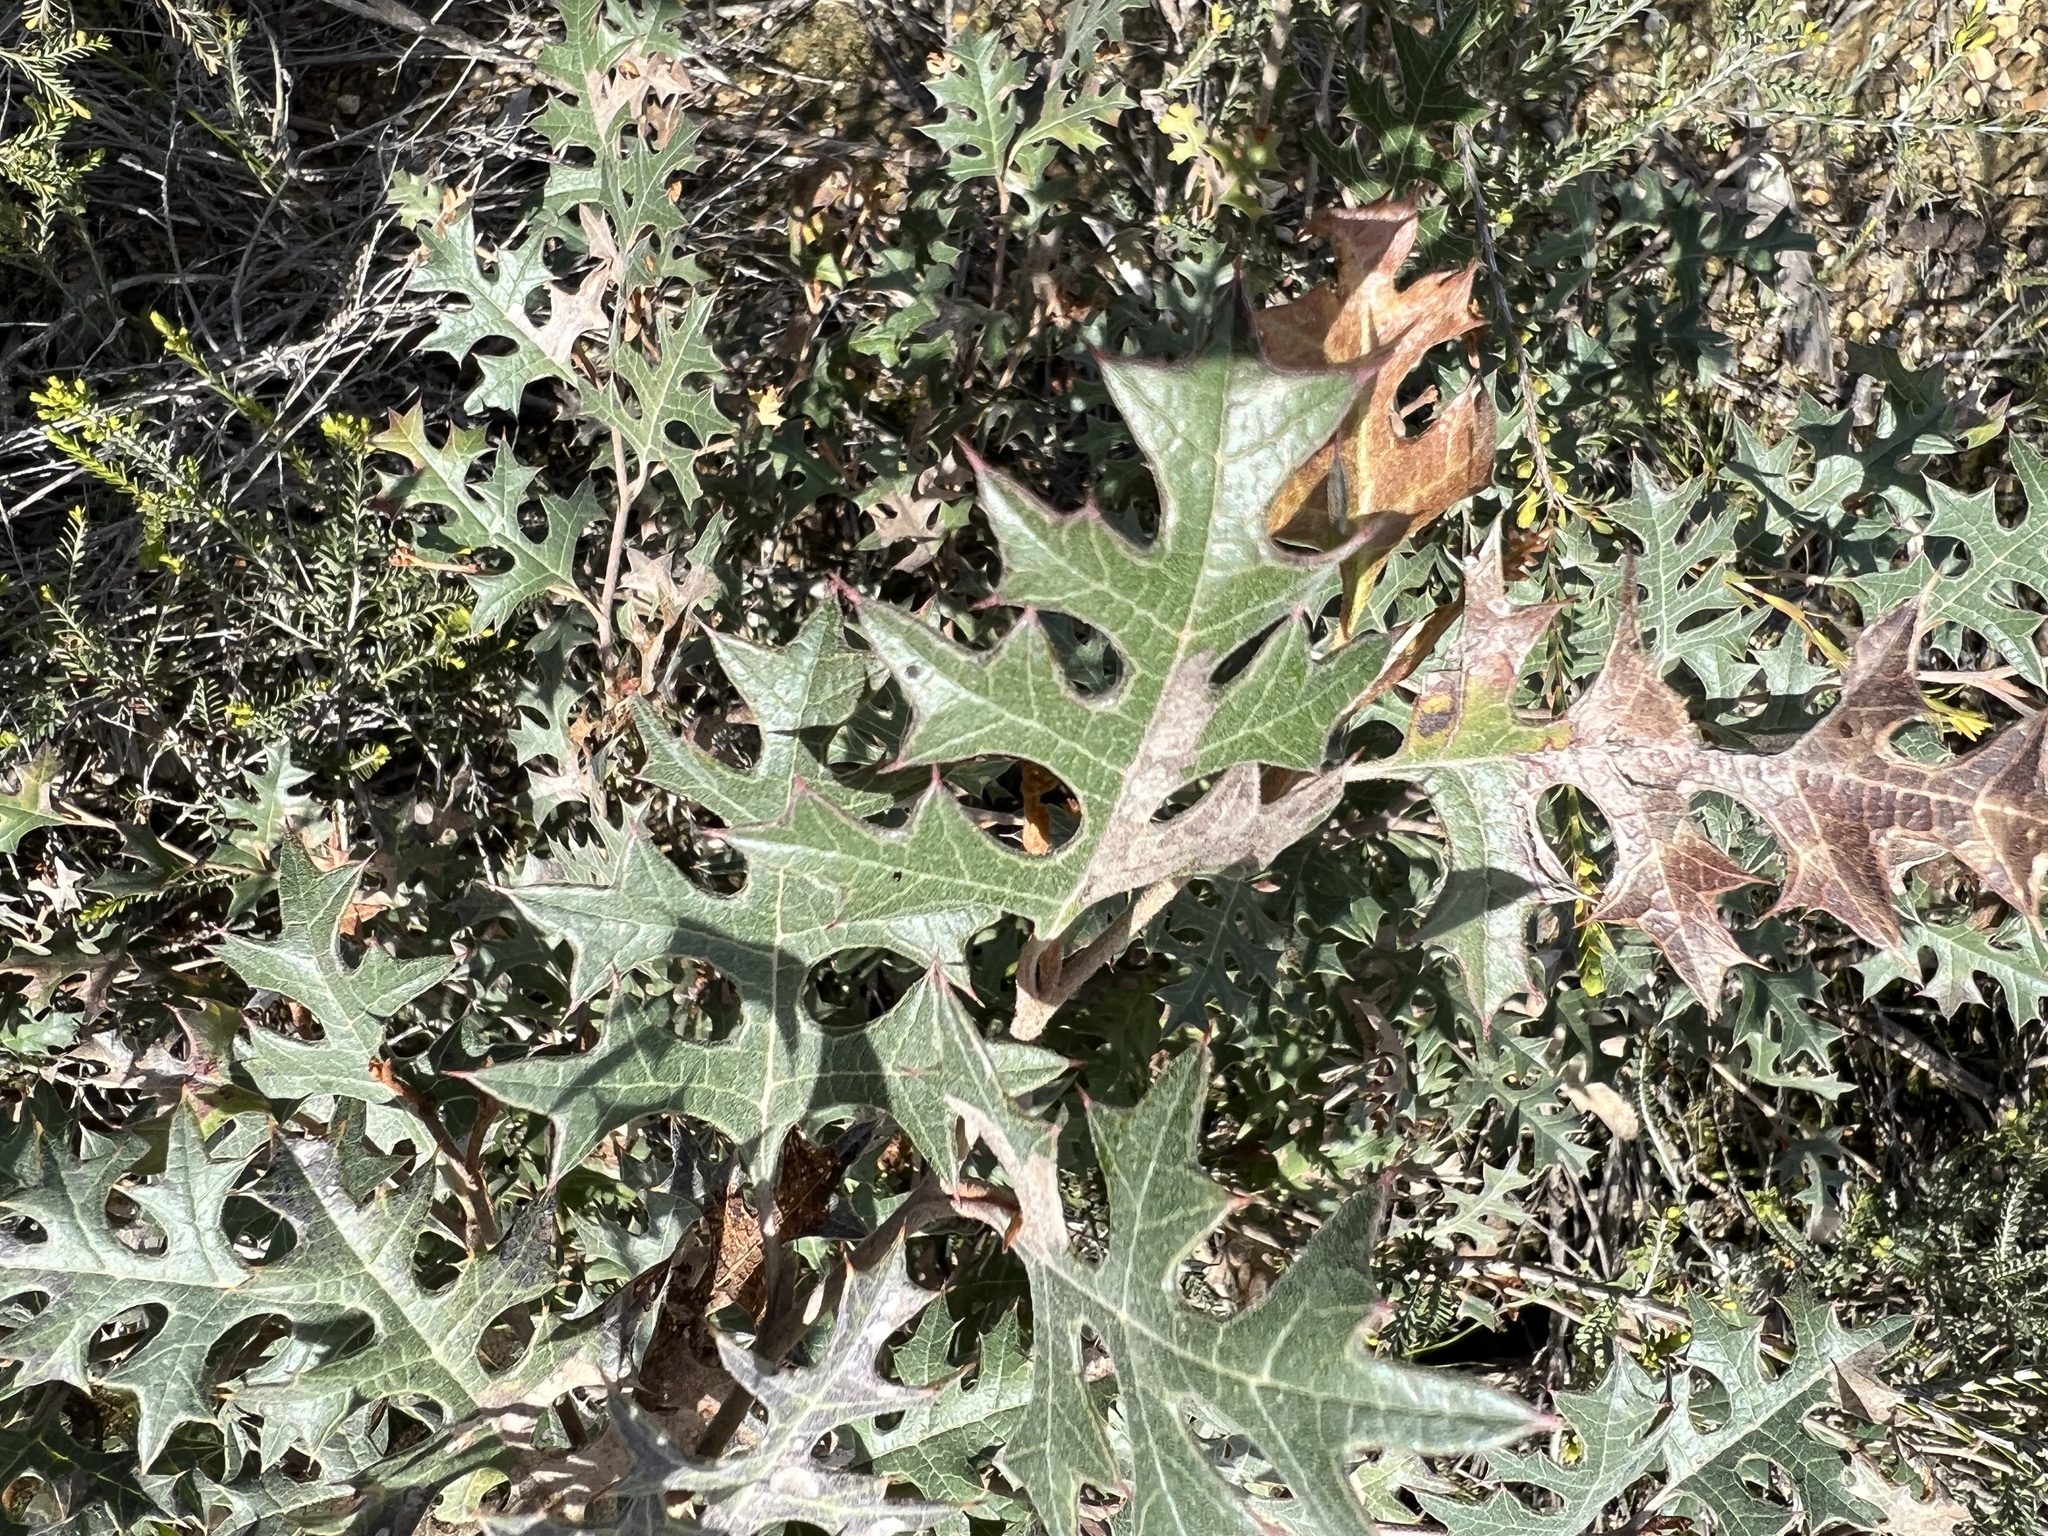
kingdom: Plantae
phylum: Tracheophyta
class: Magnoliopsida
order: Proteales
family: Proteaceae
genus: Grevillea
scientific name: Grevillea dryophylla
